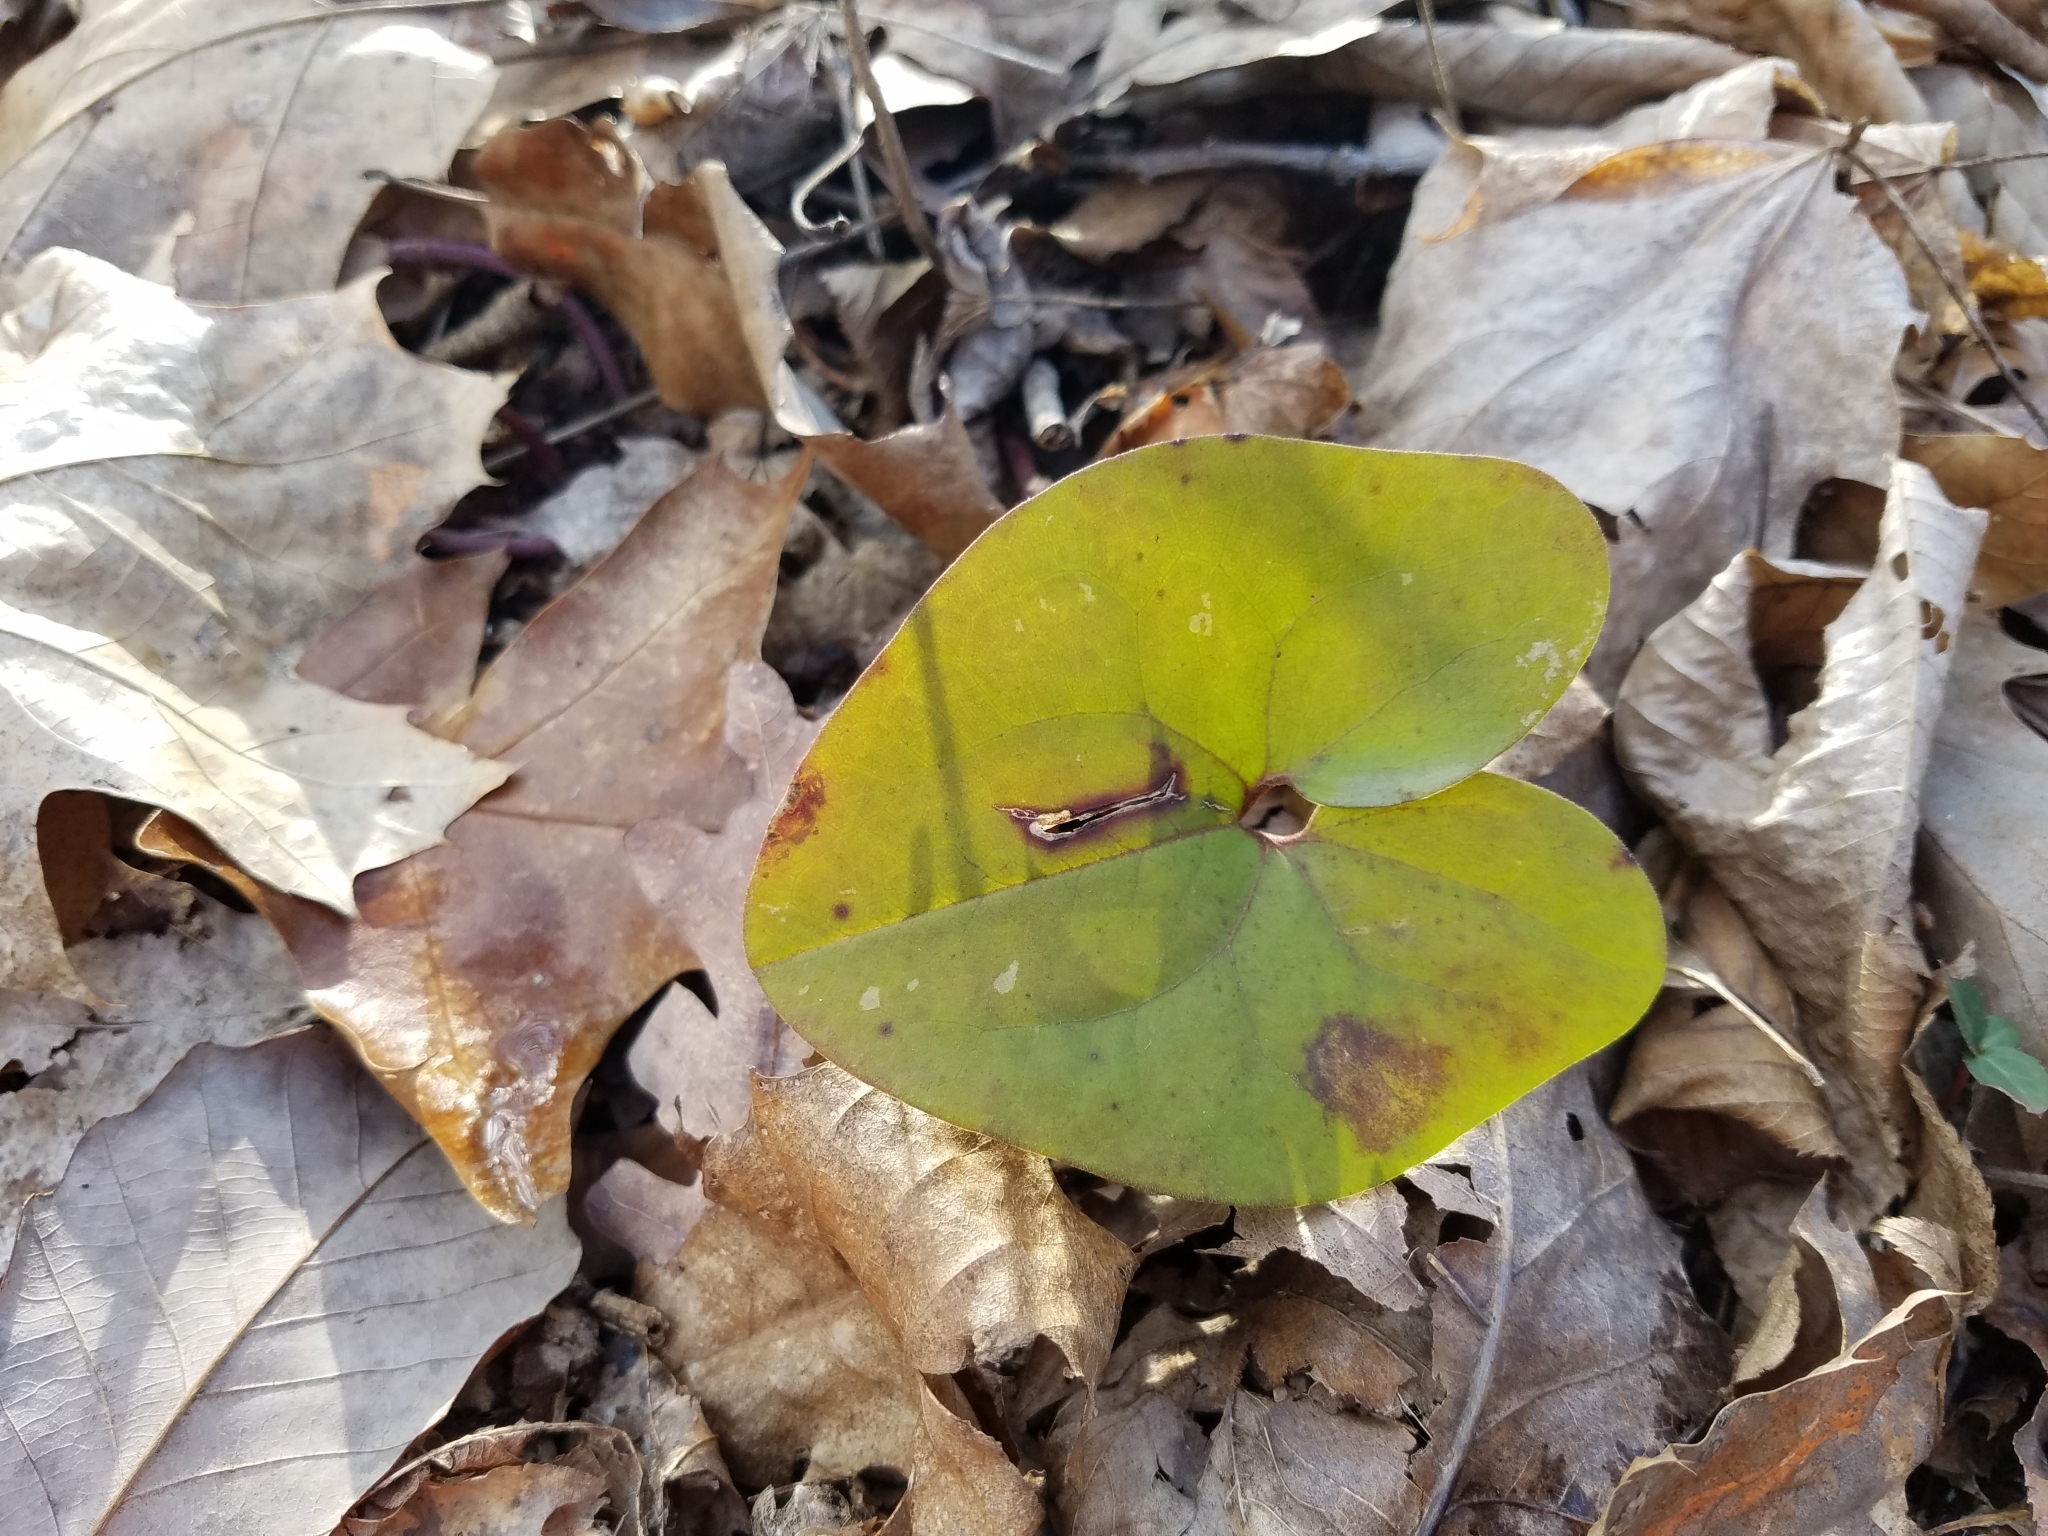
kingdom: Plantae
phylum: Tracheophyta
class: Magnoliopsida
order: Piperales
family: Aristolochiaceae
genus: Hexastylis
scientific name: Hexastylis arifolia
